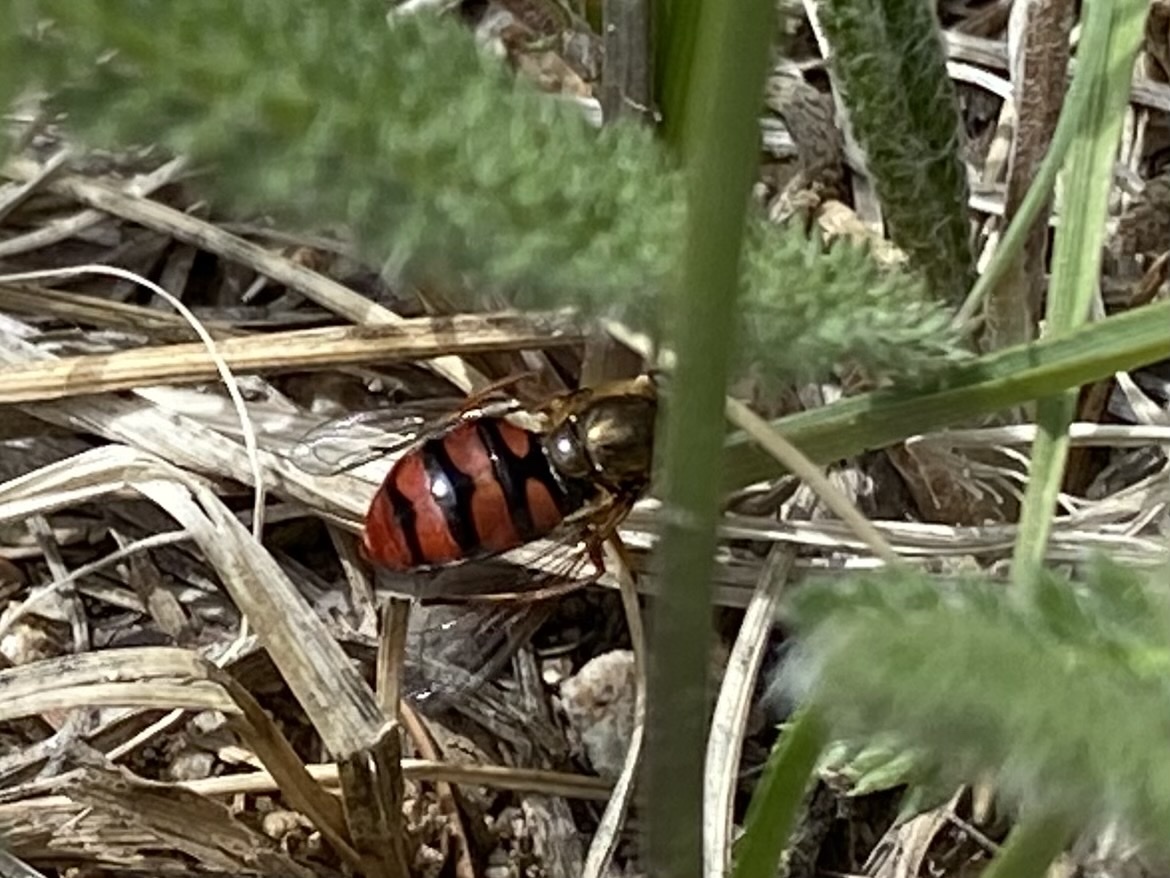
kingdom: Animalia
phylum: Arthropoda
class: Insecta
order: Diptera
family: Syrphidae
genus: Eupeodes
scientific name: Eupeodes montivagus
